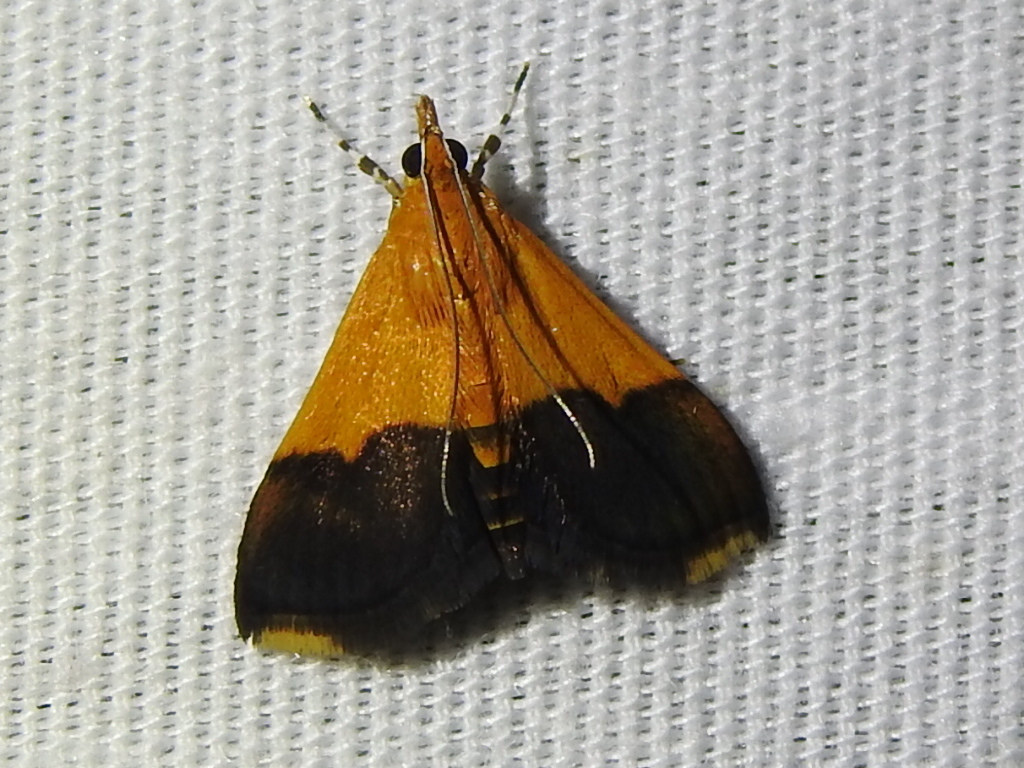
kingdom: Animalia
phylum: Arthropoda
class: Insecta
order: Lepidoptera
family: Crambidae
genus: Pyrausta
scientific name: Pyrausta augustalis
